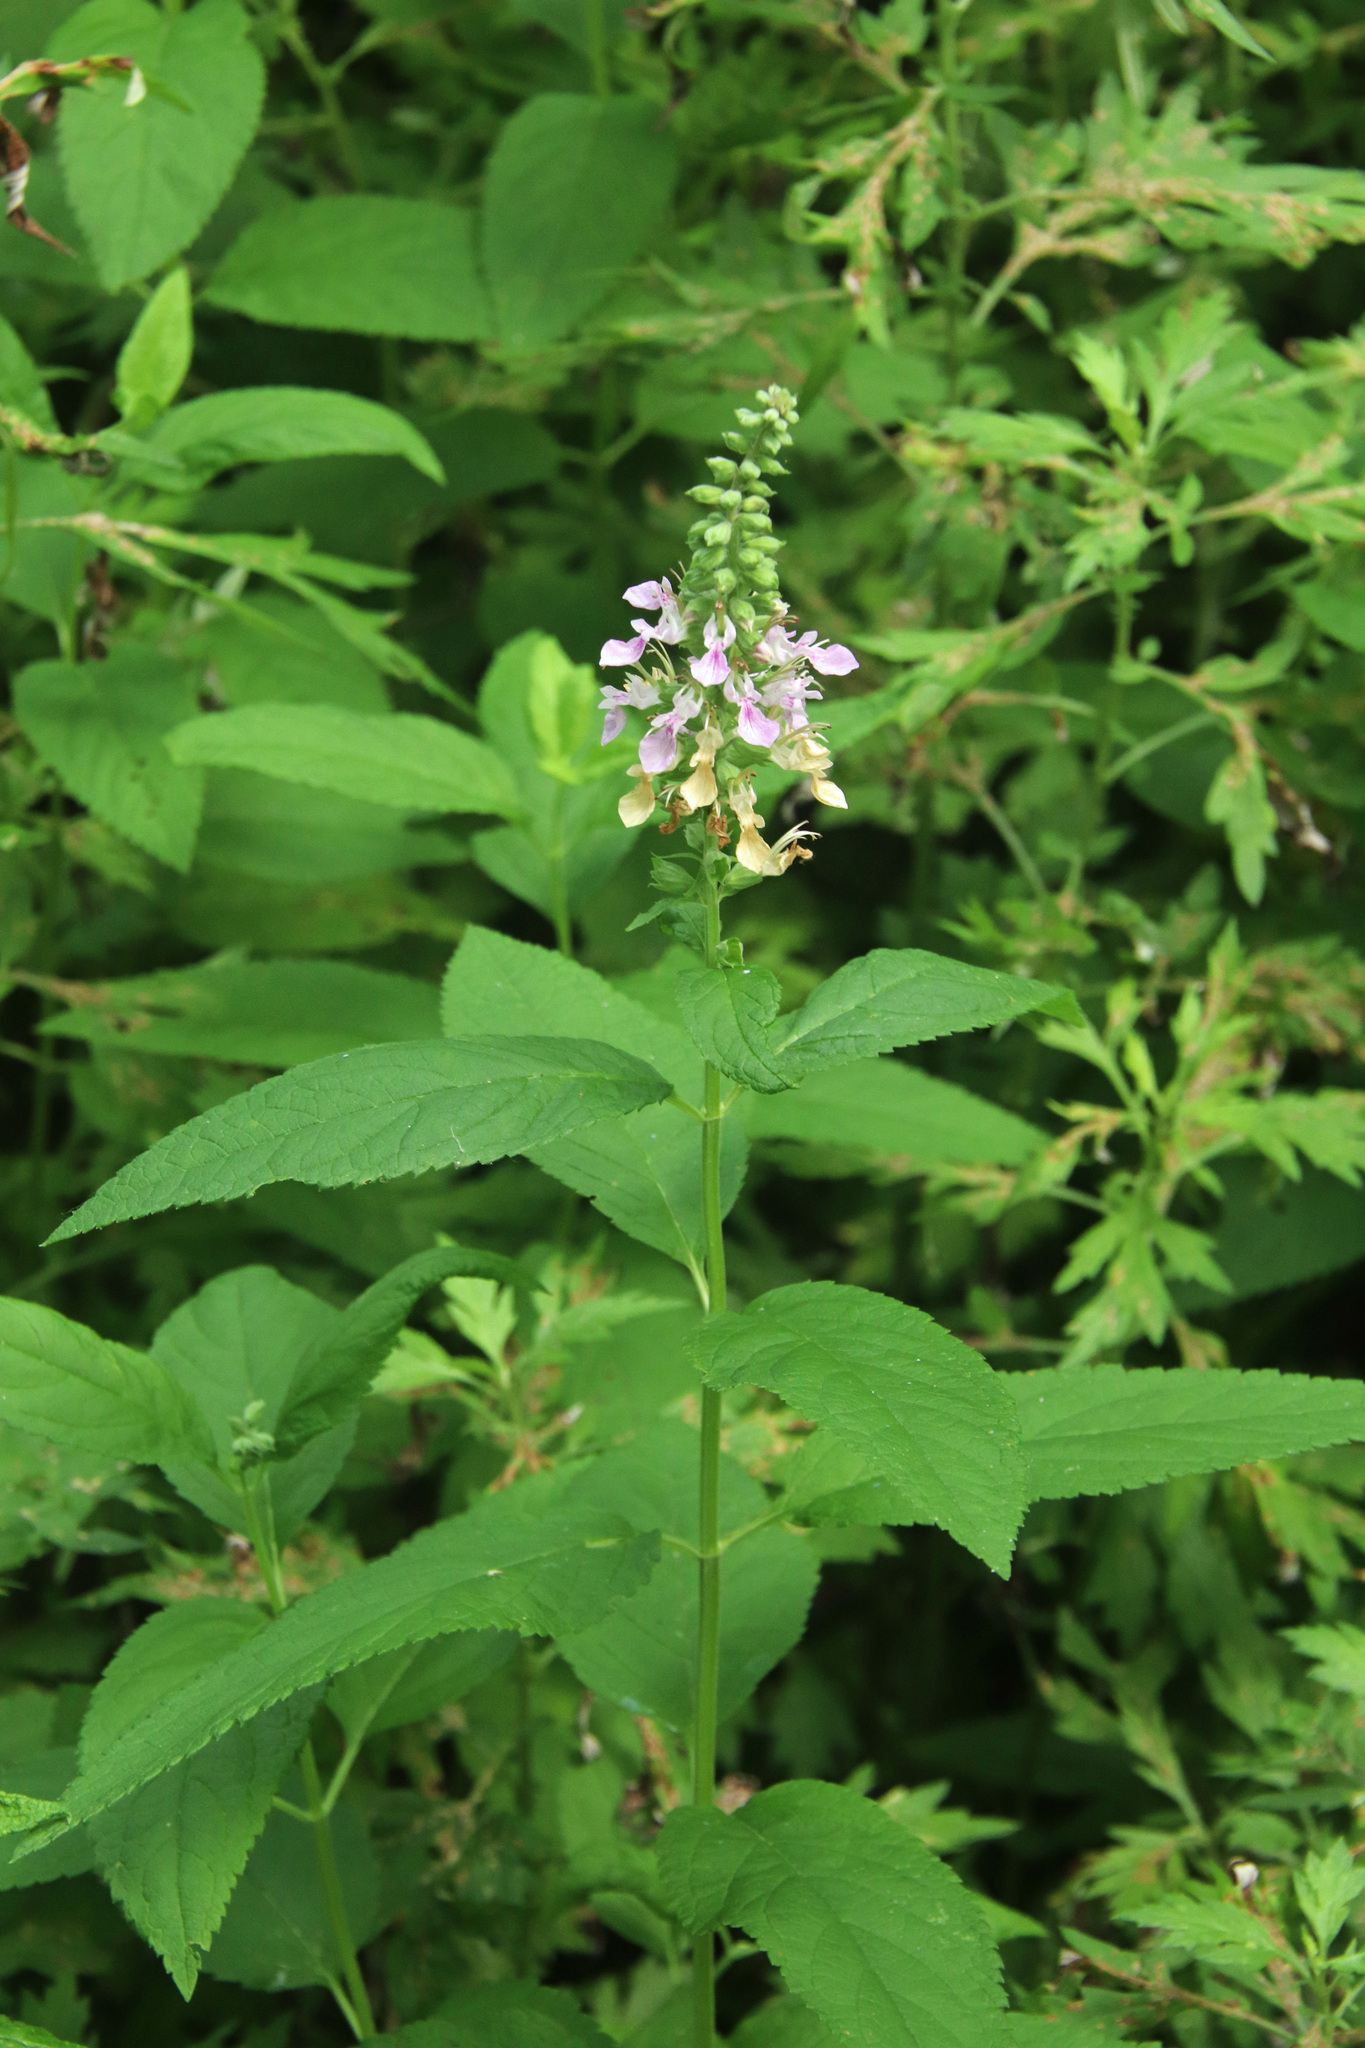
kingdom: Plantae
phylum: Tracheophyta
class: Magnoliopsida
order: Lamiales
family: Lamiaceae
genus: Teucrium
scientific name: Teucrium canadense
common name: American germander
